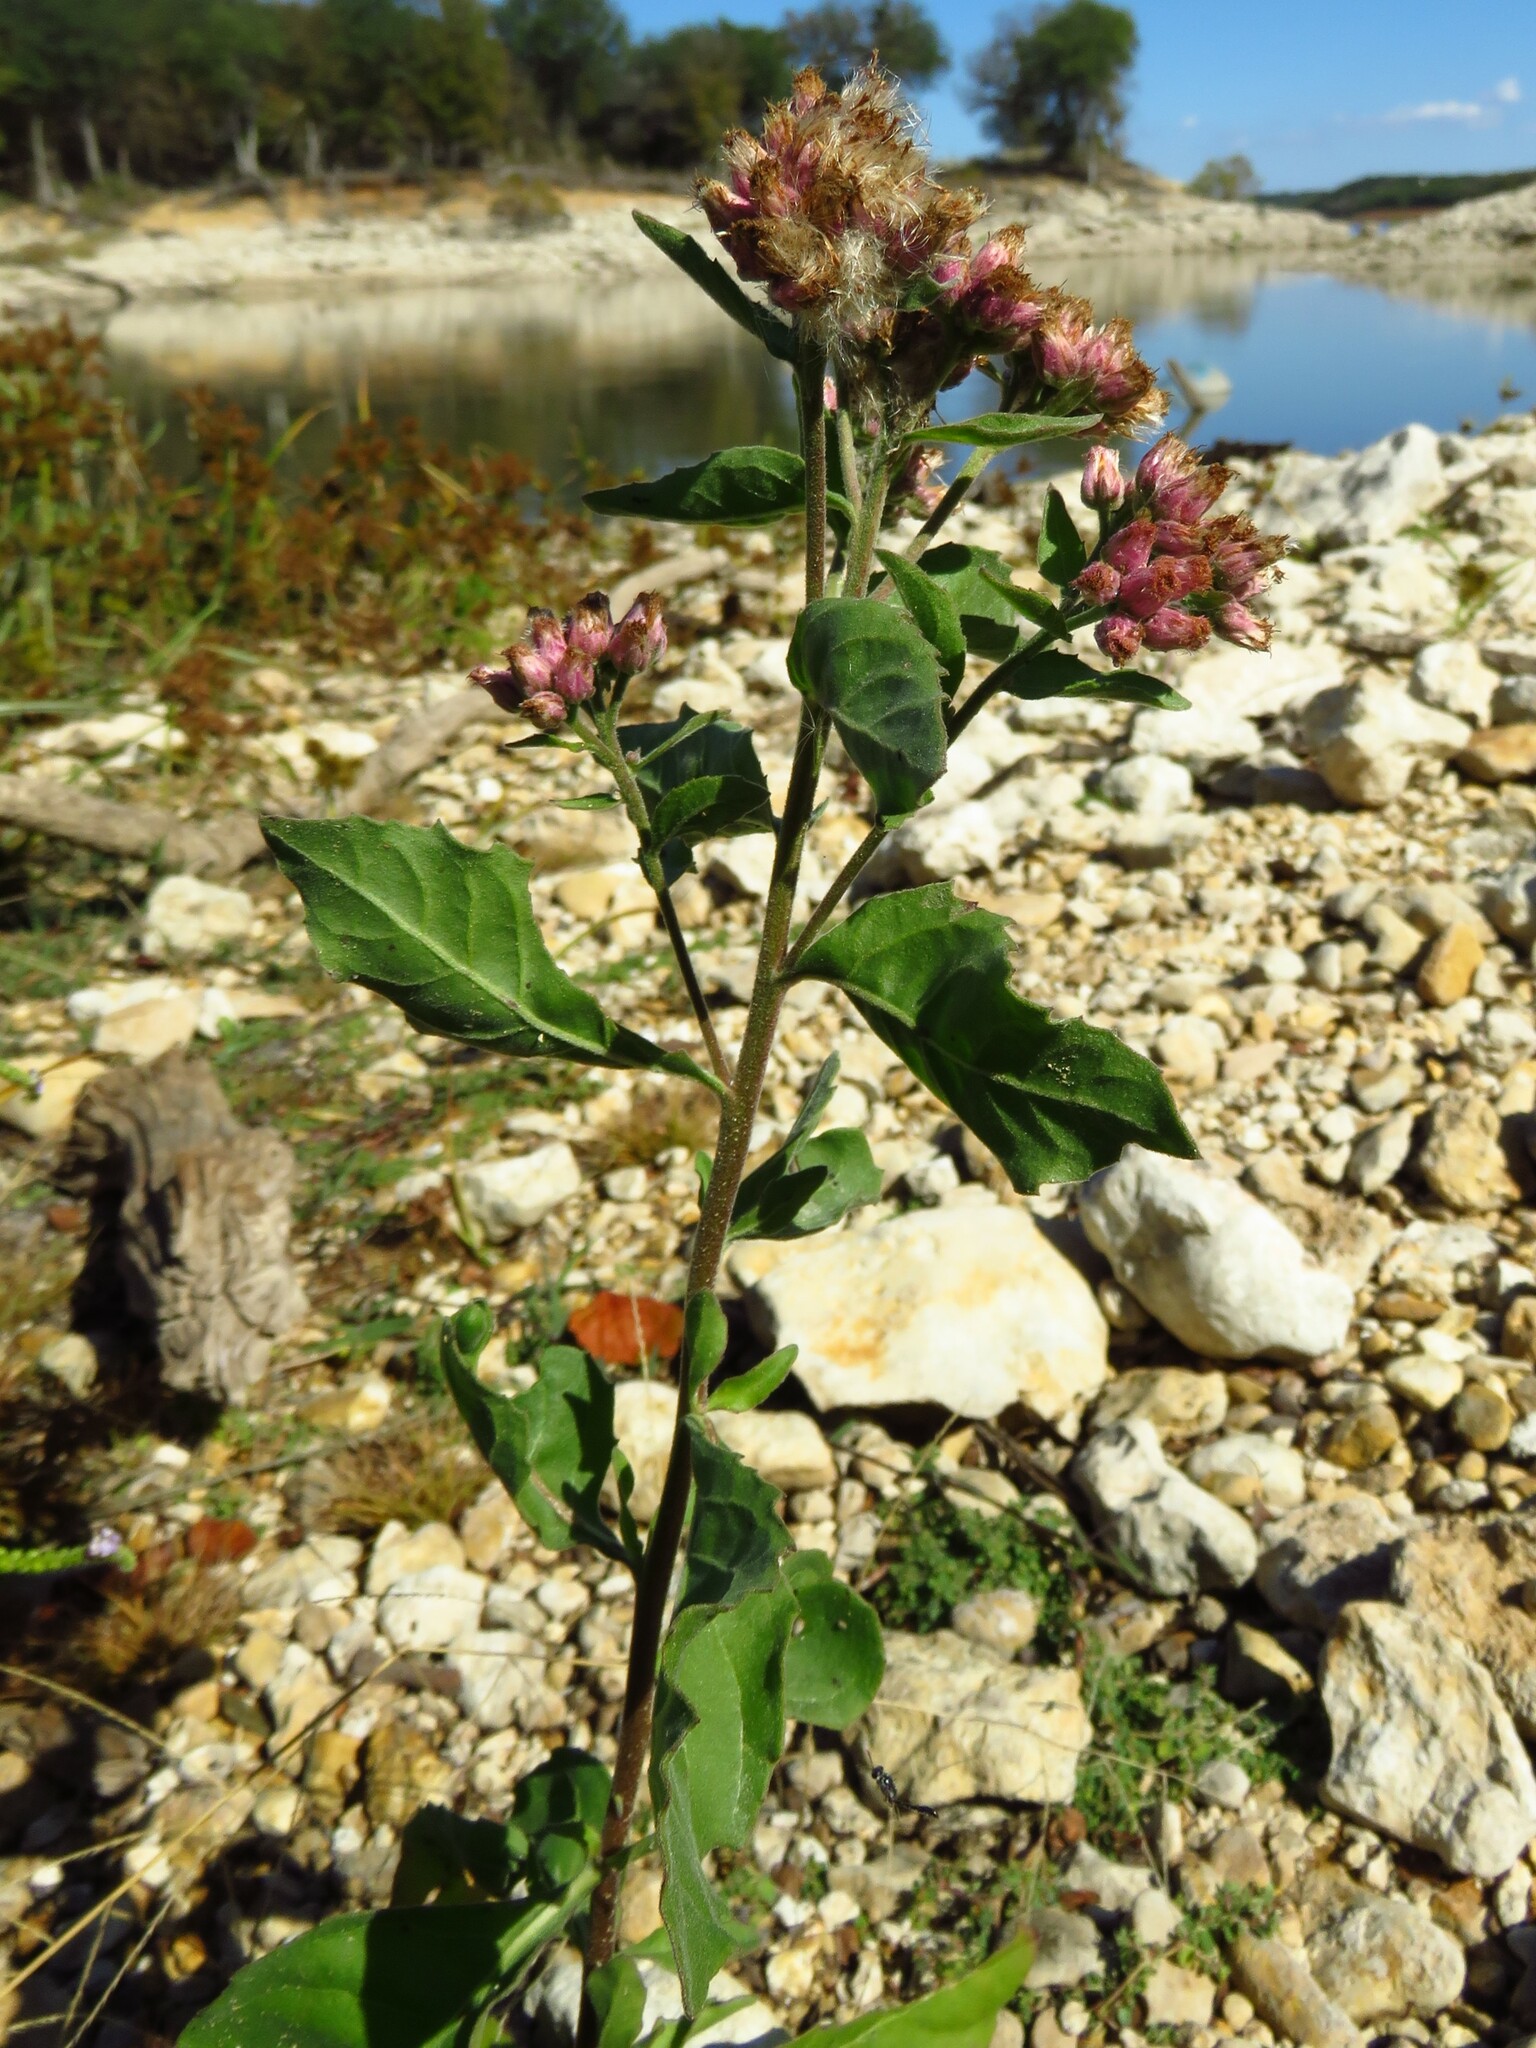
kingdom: Plantae
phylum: Tracheophyta
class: Magnoliopsida
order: Asterales
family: Asteraceae
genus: Pluchea
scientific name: Pluchea odorata
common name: Saltmarsh fleabane
